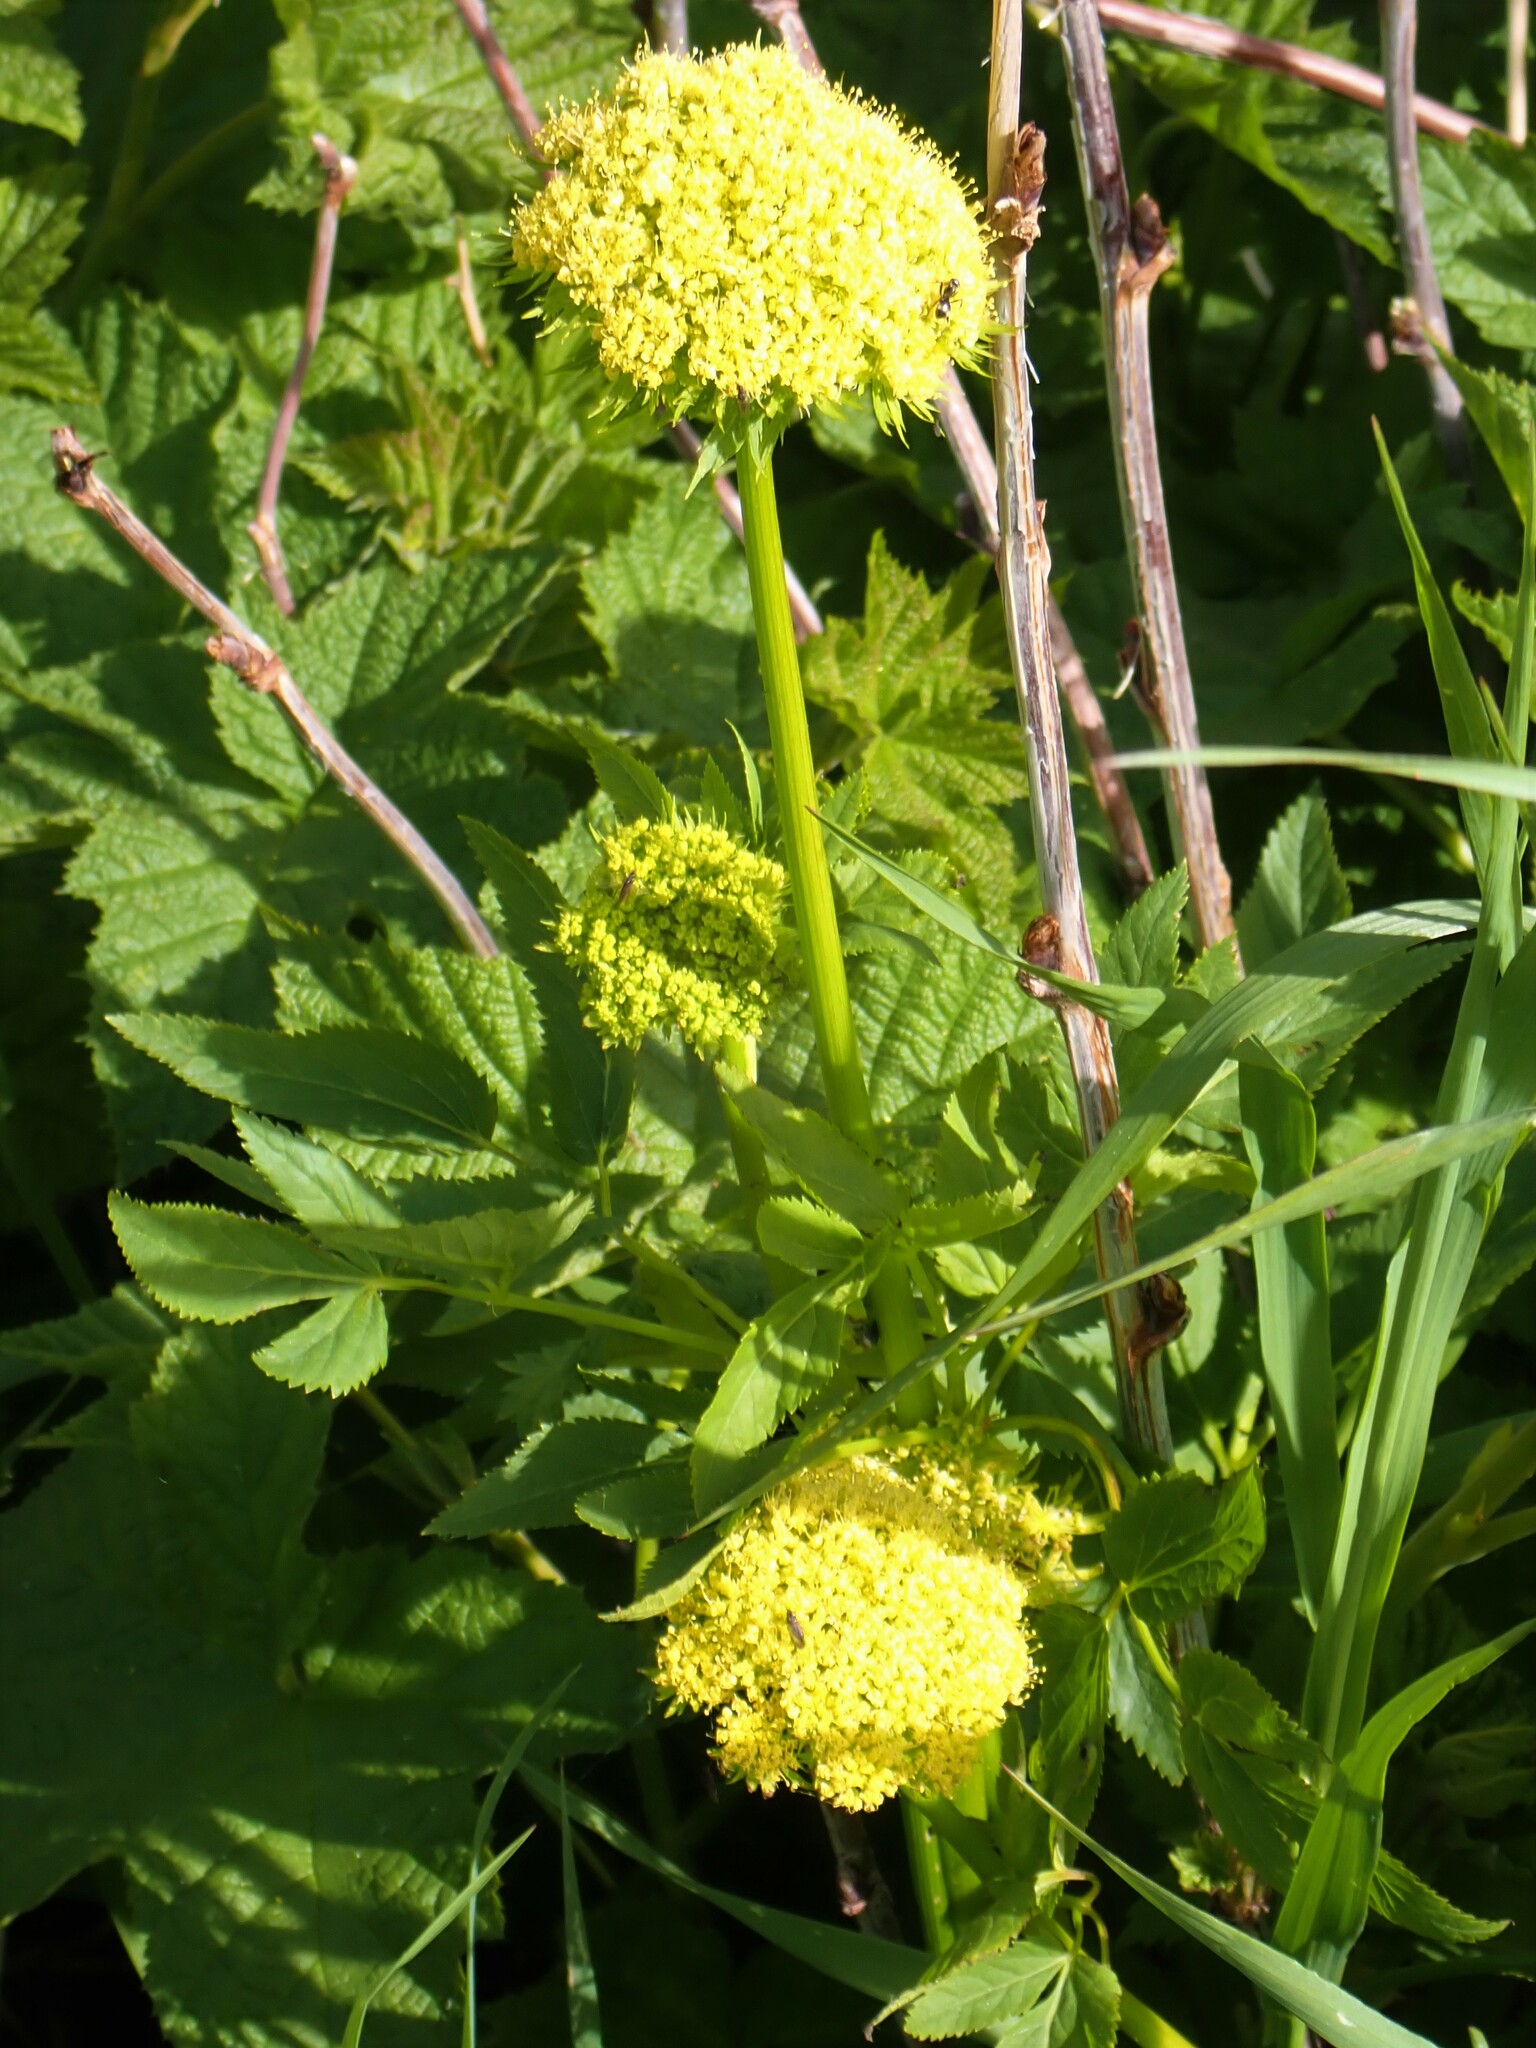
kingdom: Plantae
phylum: Tracheophyta
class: Magnoliopsida
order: Apiales
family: Apiaceae
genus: Angelica
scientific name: Angelica dawsonii
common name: Dawson's angelica
